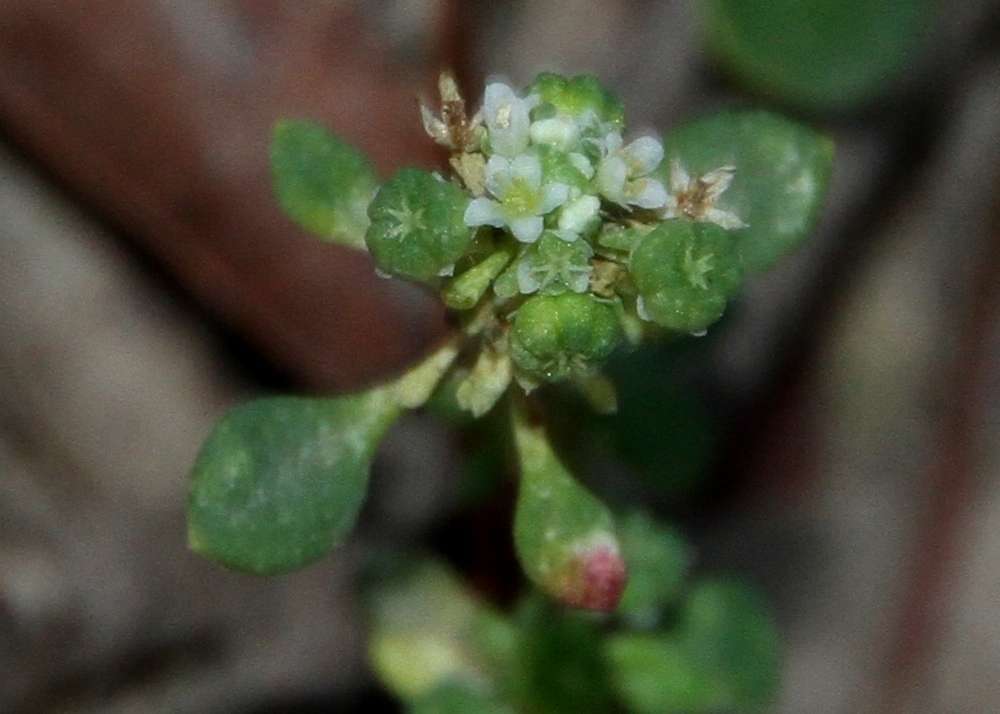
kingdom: Plantae
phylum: Tracheophyta
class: Magnoliopsida
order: Malpighiales
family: Phyllanthaceae
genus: Poranthera
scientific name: Poranthera microphylla
